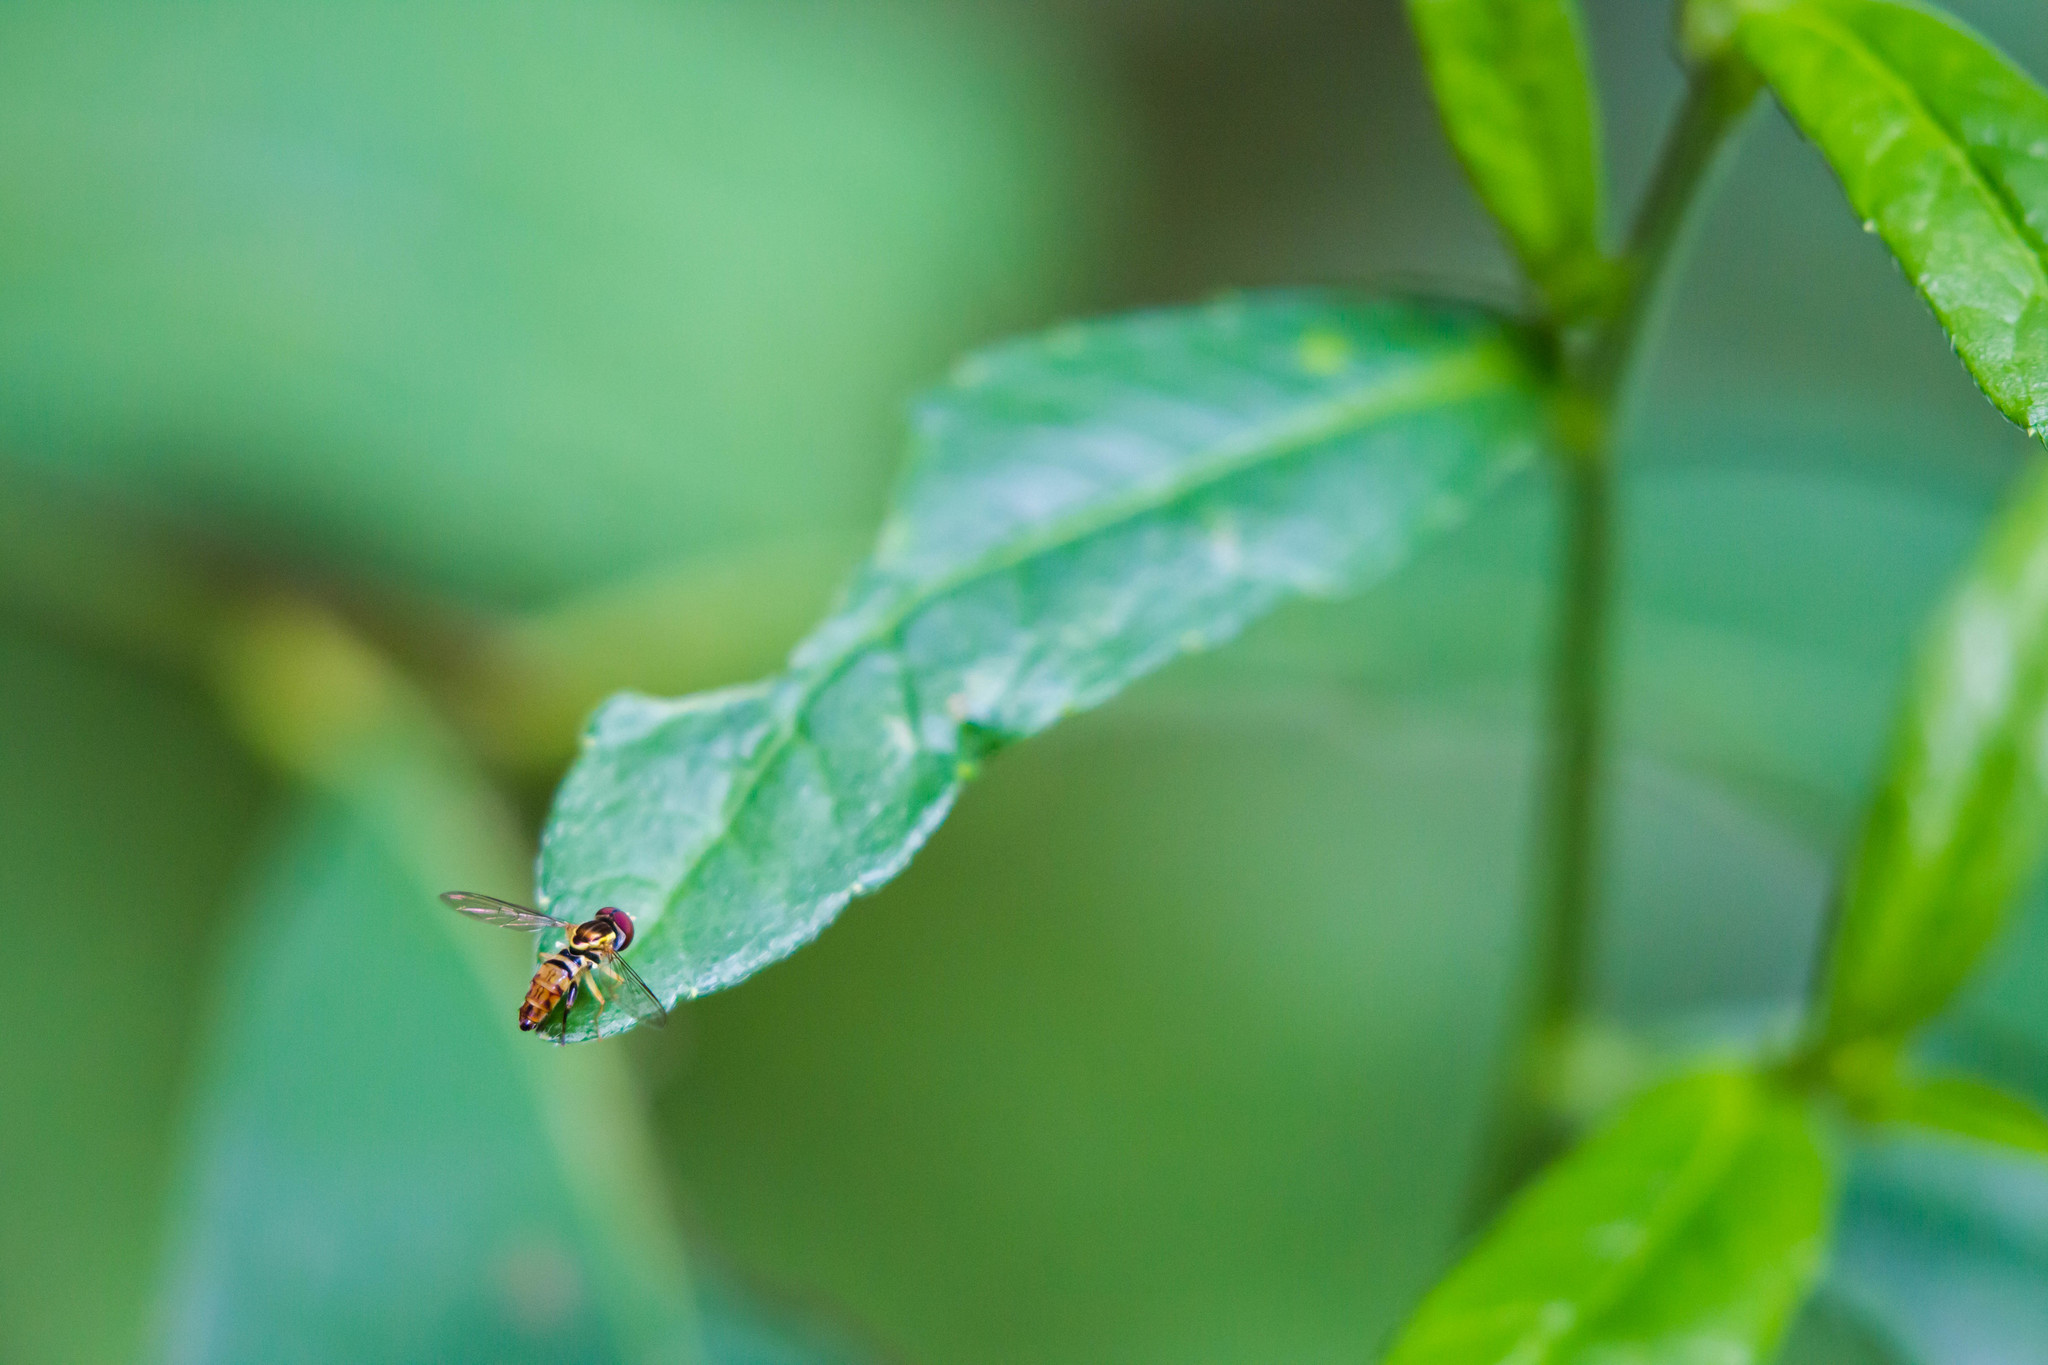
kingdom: Animalia
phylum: Arthropoda
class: Insecta
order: Diptera
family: Syrphidae
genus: Toxomerus
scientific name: Toxomerus geminatus
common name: Eastern calligrapher
